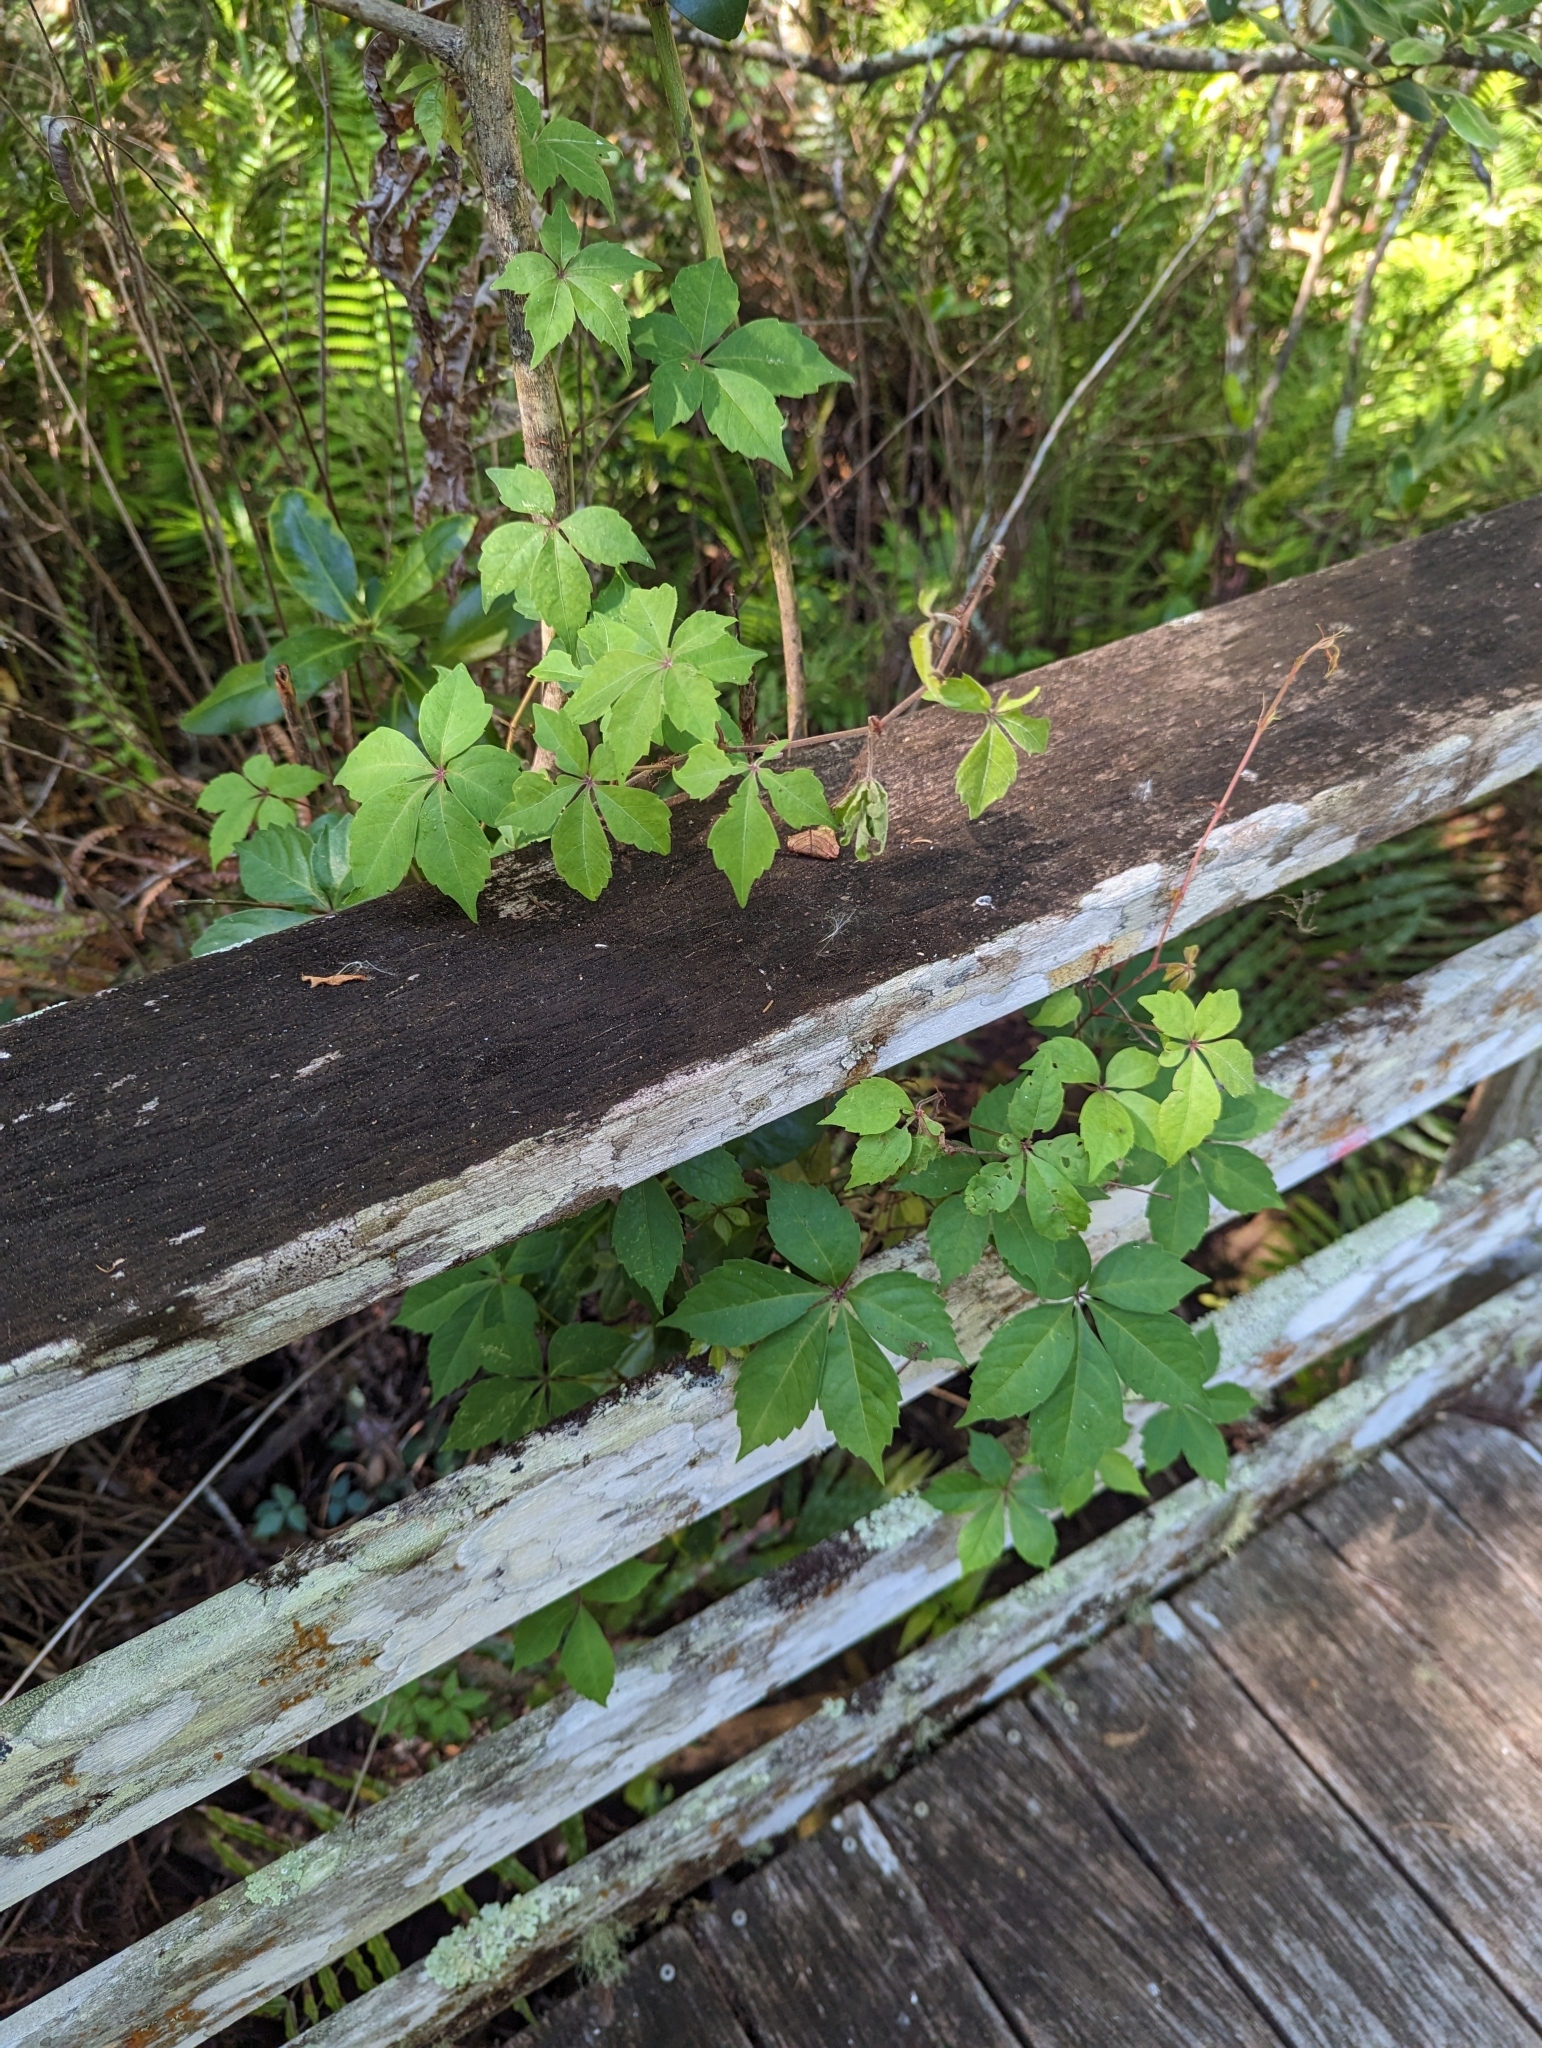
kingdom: Plantae
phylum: Tracheophyta
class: Magnoliopsida
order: Vitales
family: Vitaceae
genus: Parthenocissus
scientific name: Parthenocissus quinquefolia
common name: Virginia-creeper
